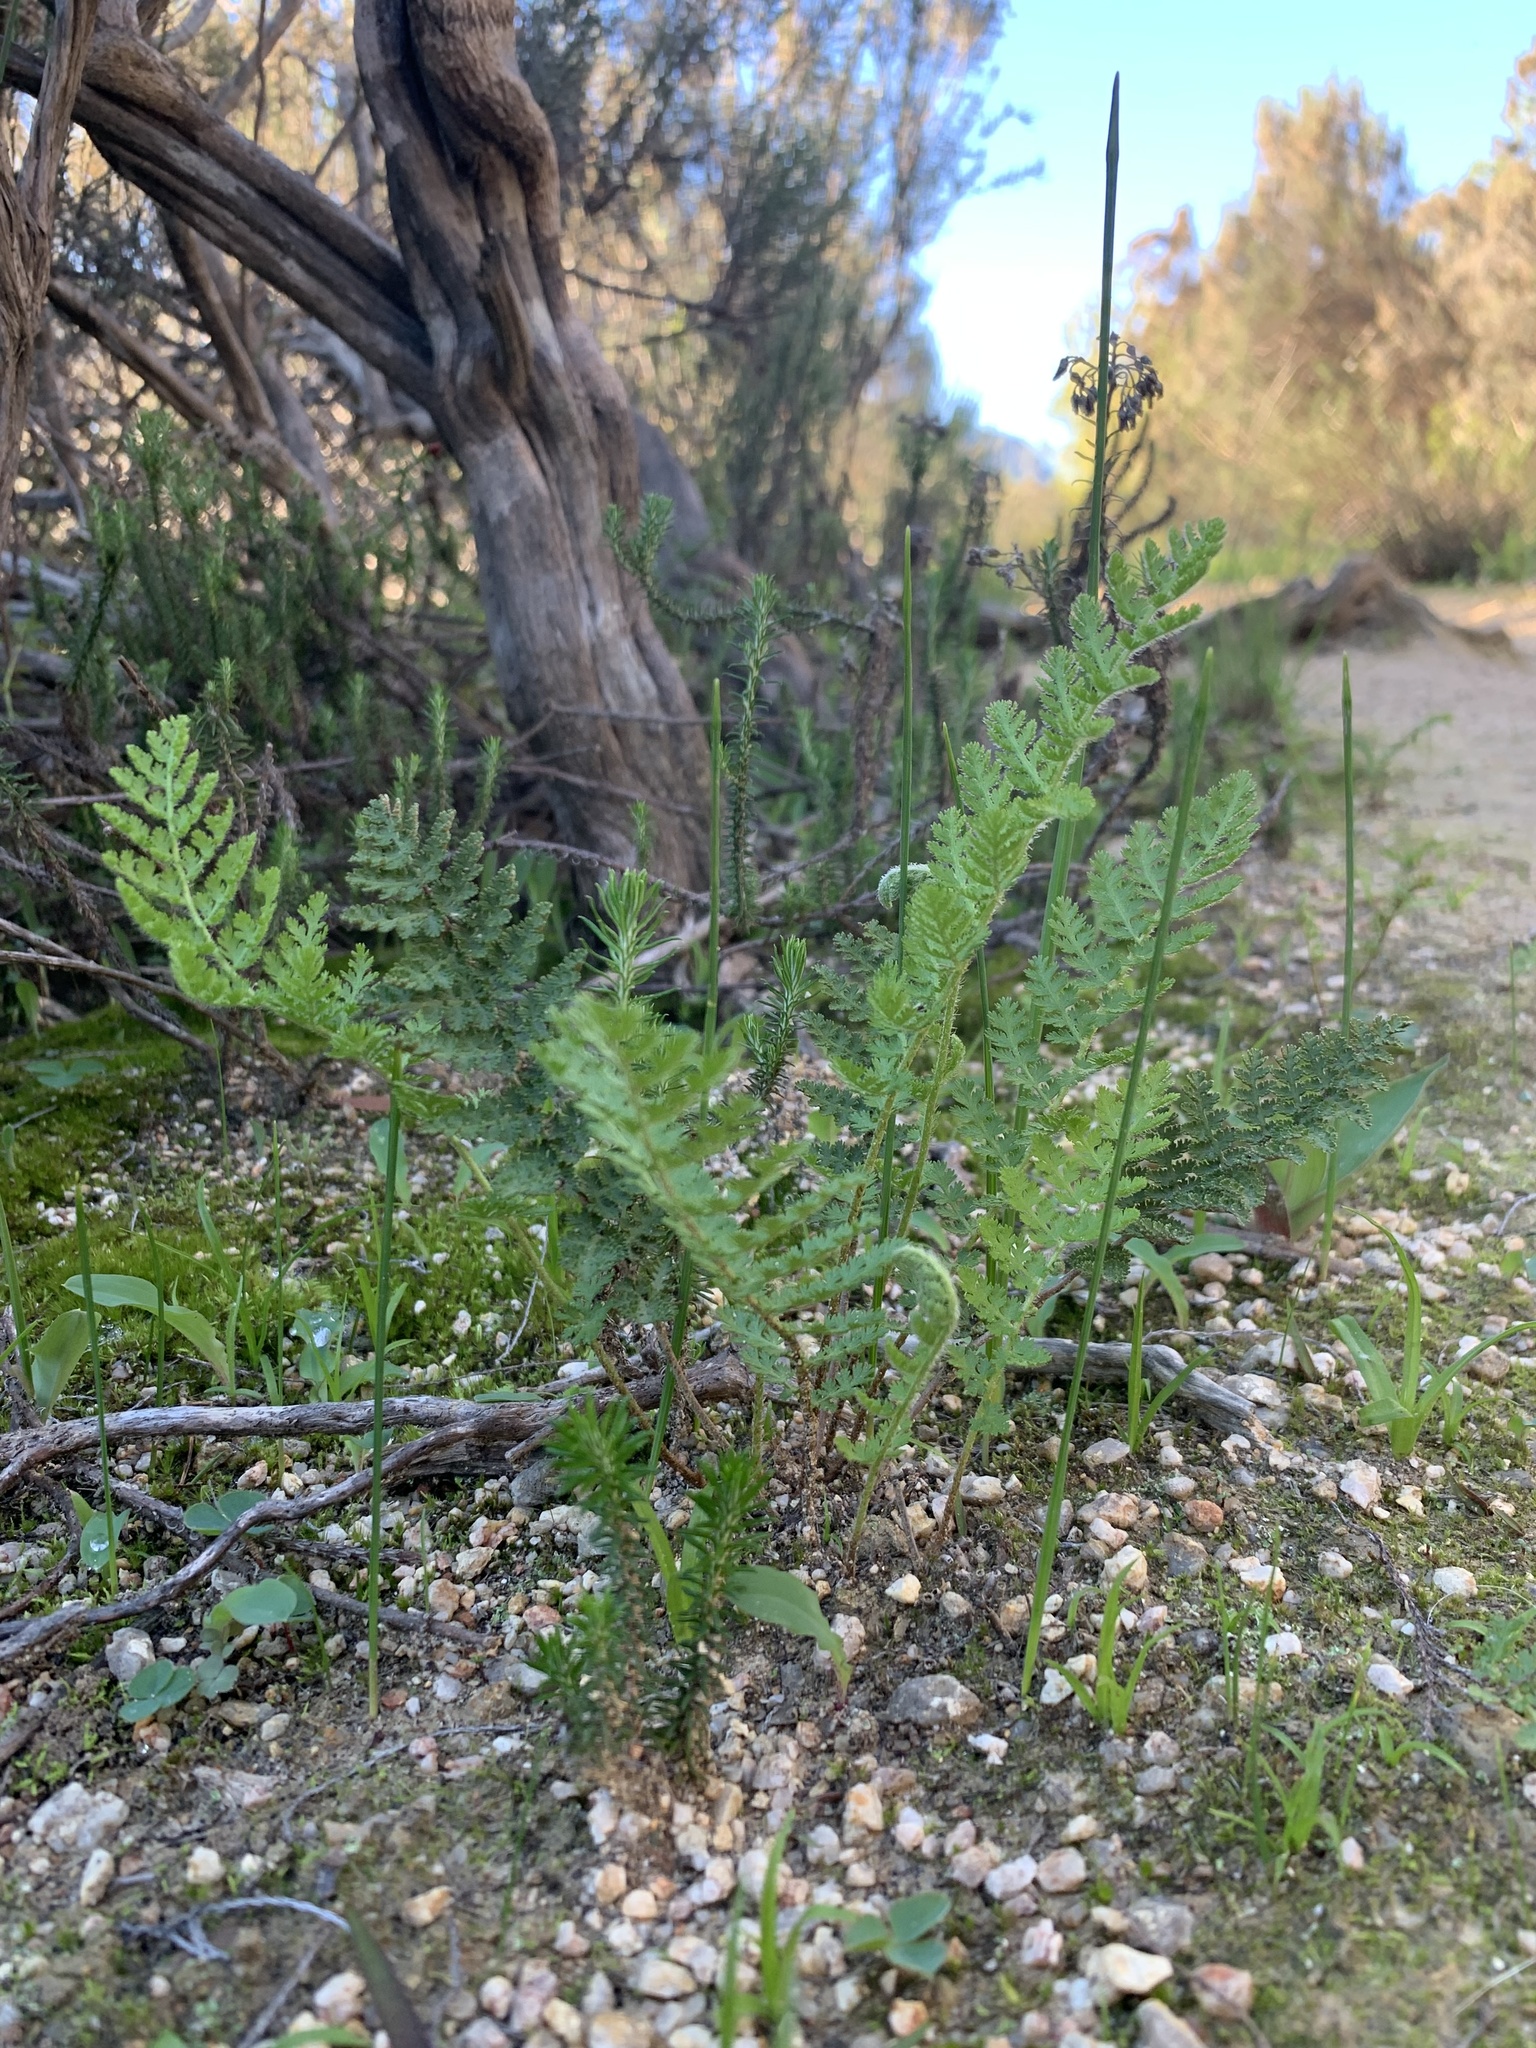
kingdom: Plantae
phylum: Tracheophyta
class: Polypodiopsida
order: Schizaeales
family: Anemiaceae
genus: Anemia
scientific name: Anemia caffrorum
